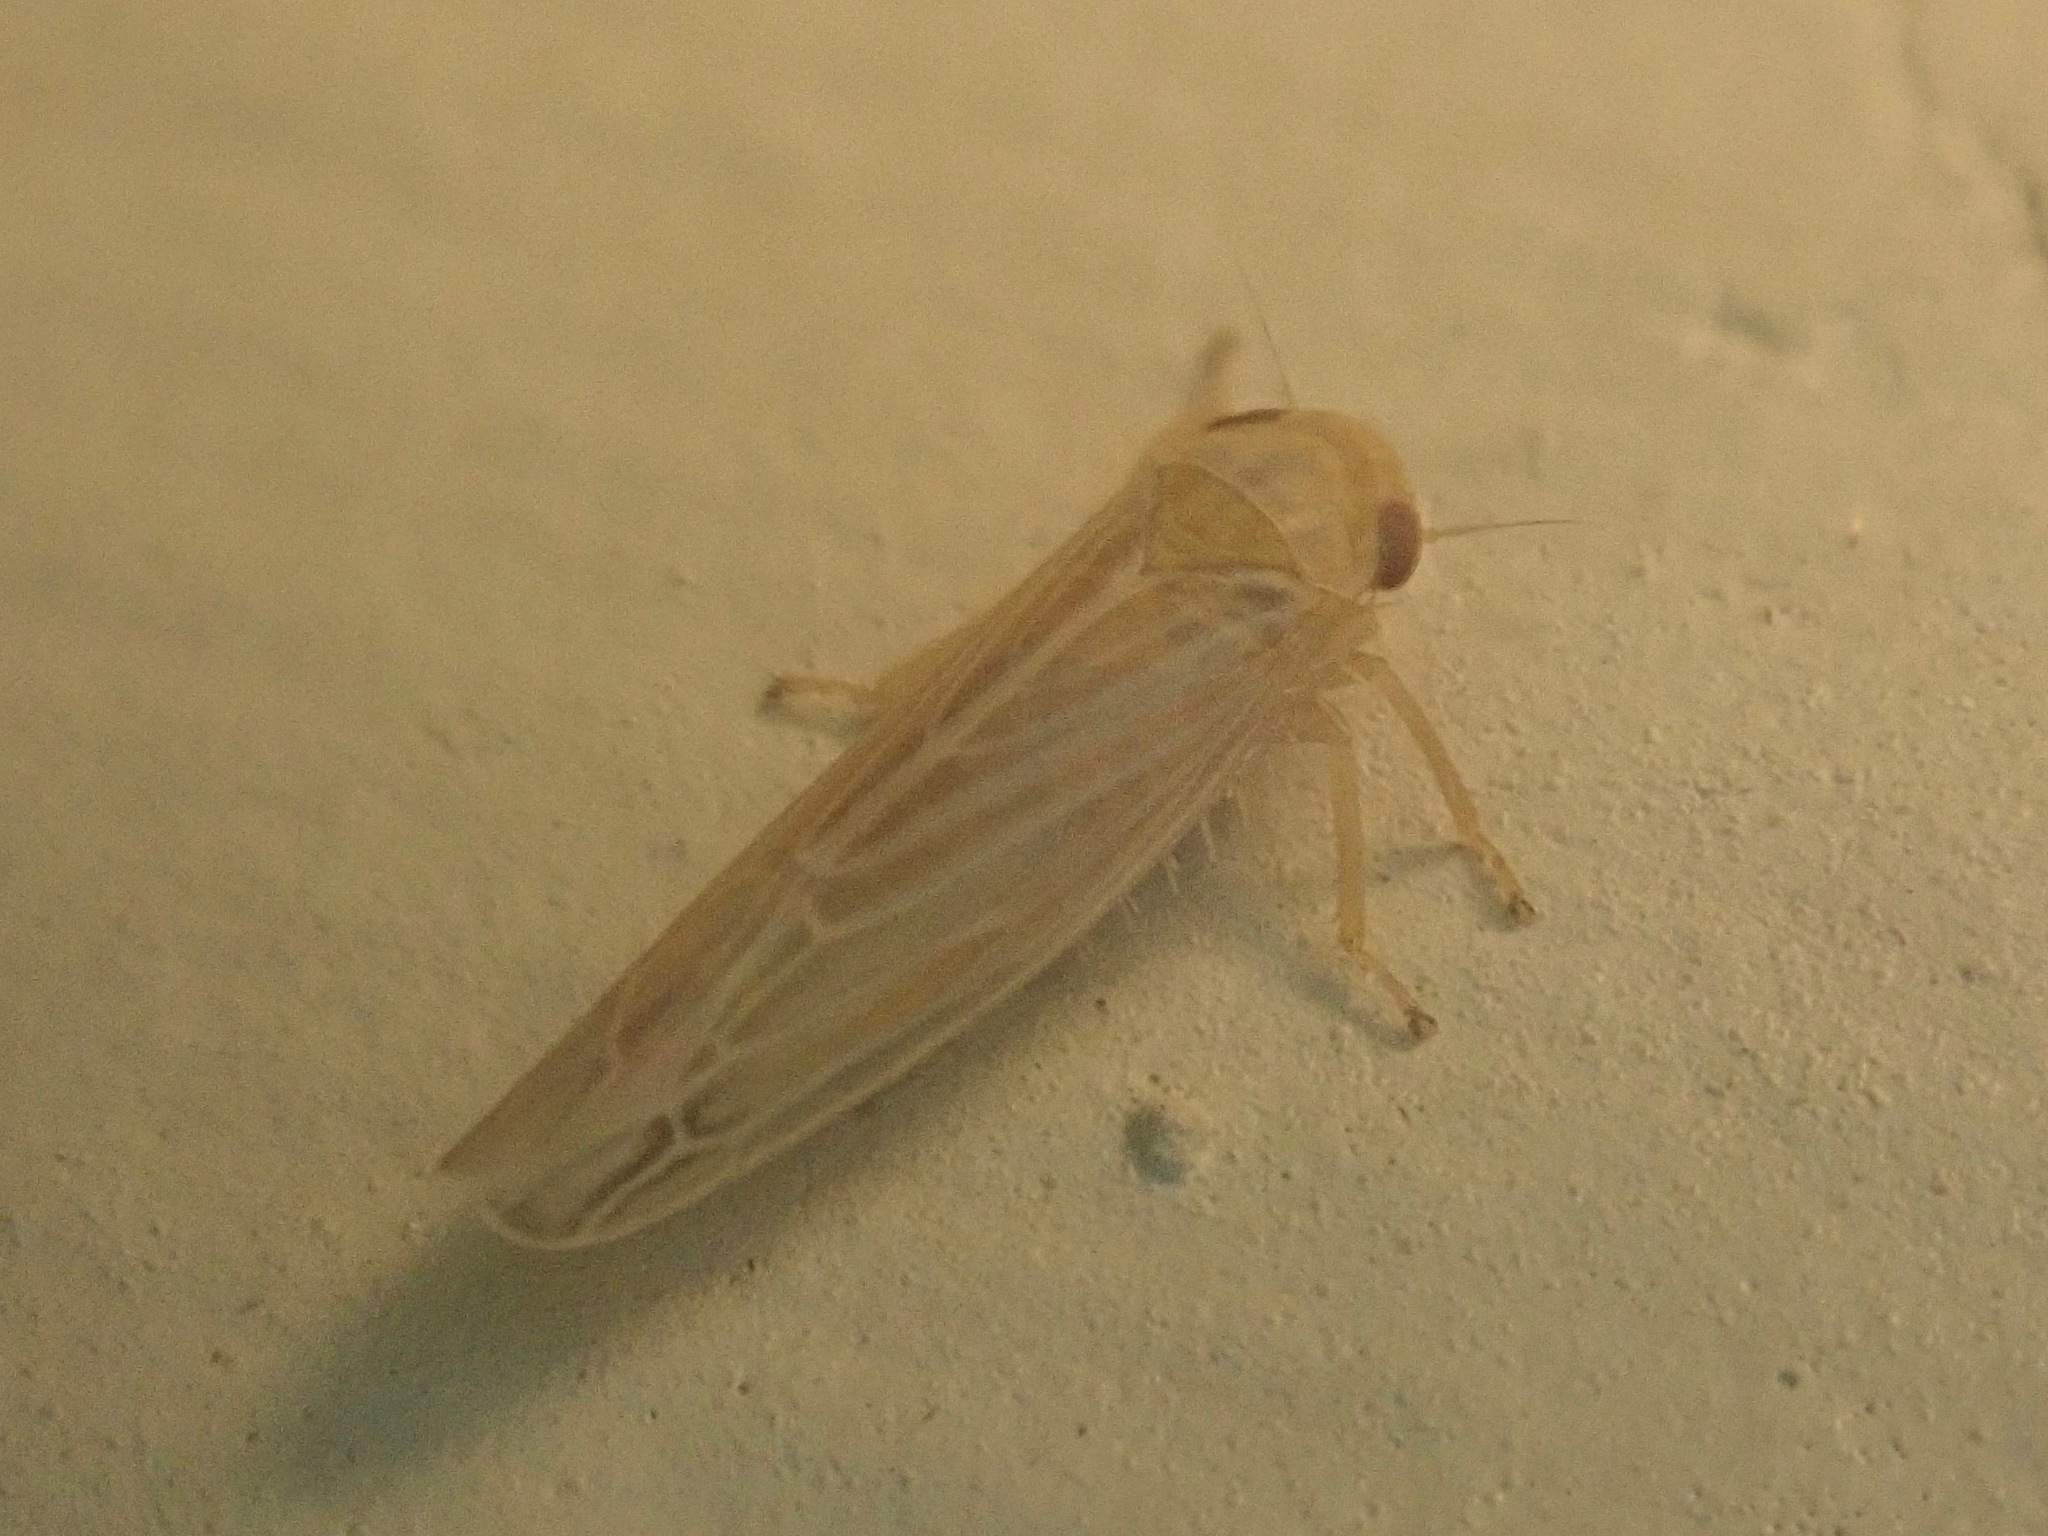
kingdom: Animalia
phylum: Arthropoda
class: Insecta
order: Hemiptera
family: Cicadellidae
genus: Balclutha
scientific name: Balclutha rubrostriata
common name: Red-streaked leafhopper
